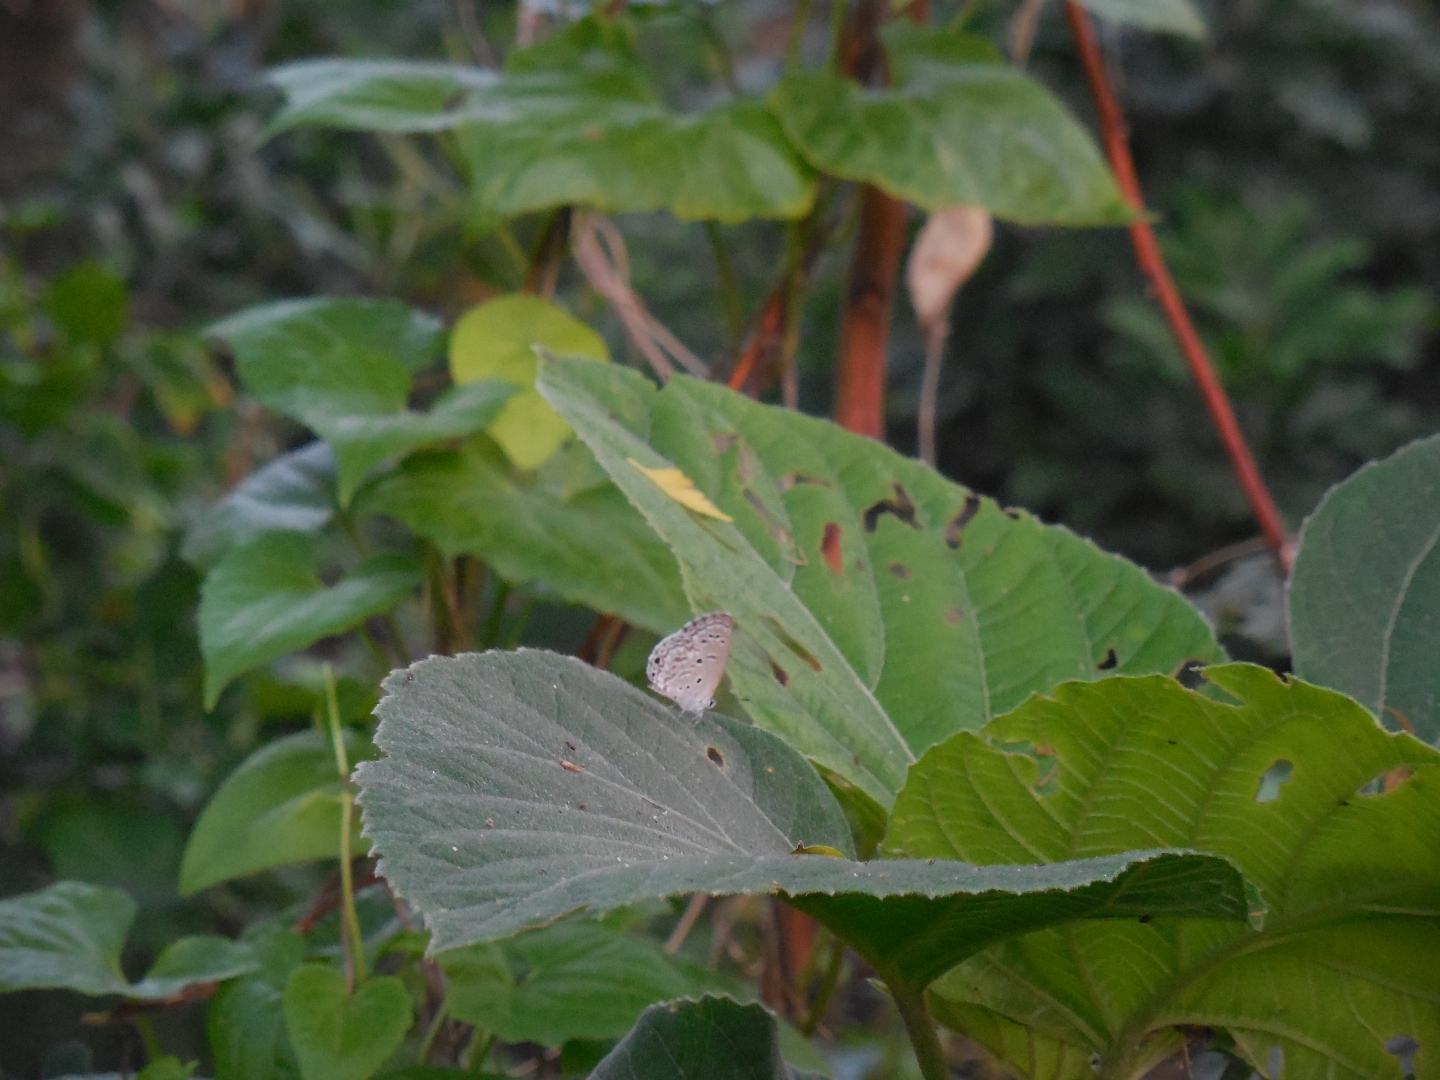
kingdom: Animalia
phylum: Arthropoda
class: Insecta
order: Lepidoptera
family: Lycaenidae
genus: Chilades
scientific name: Chilades laius
